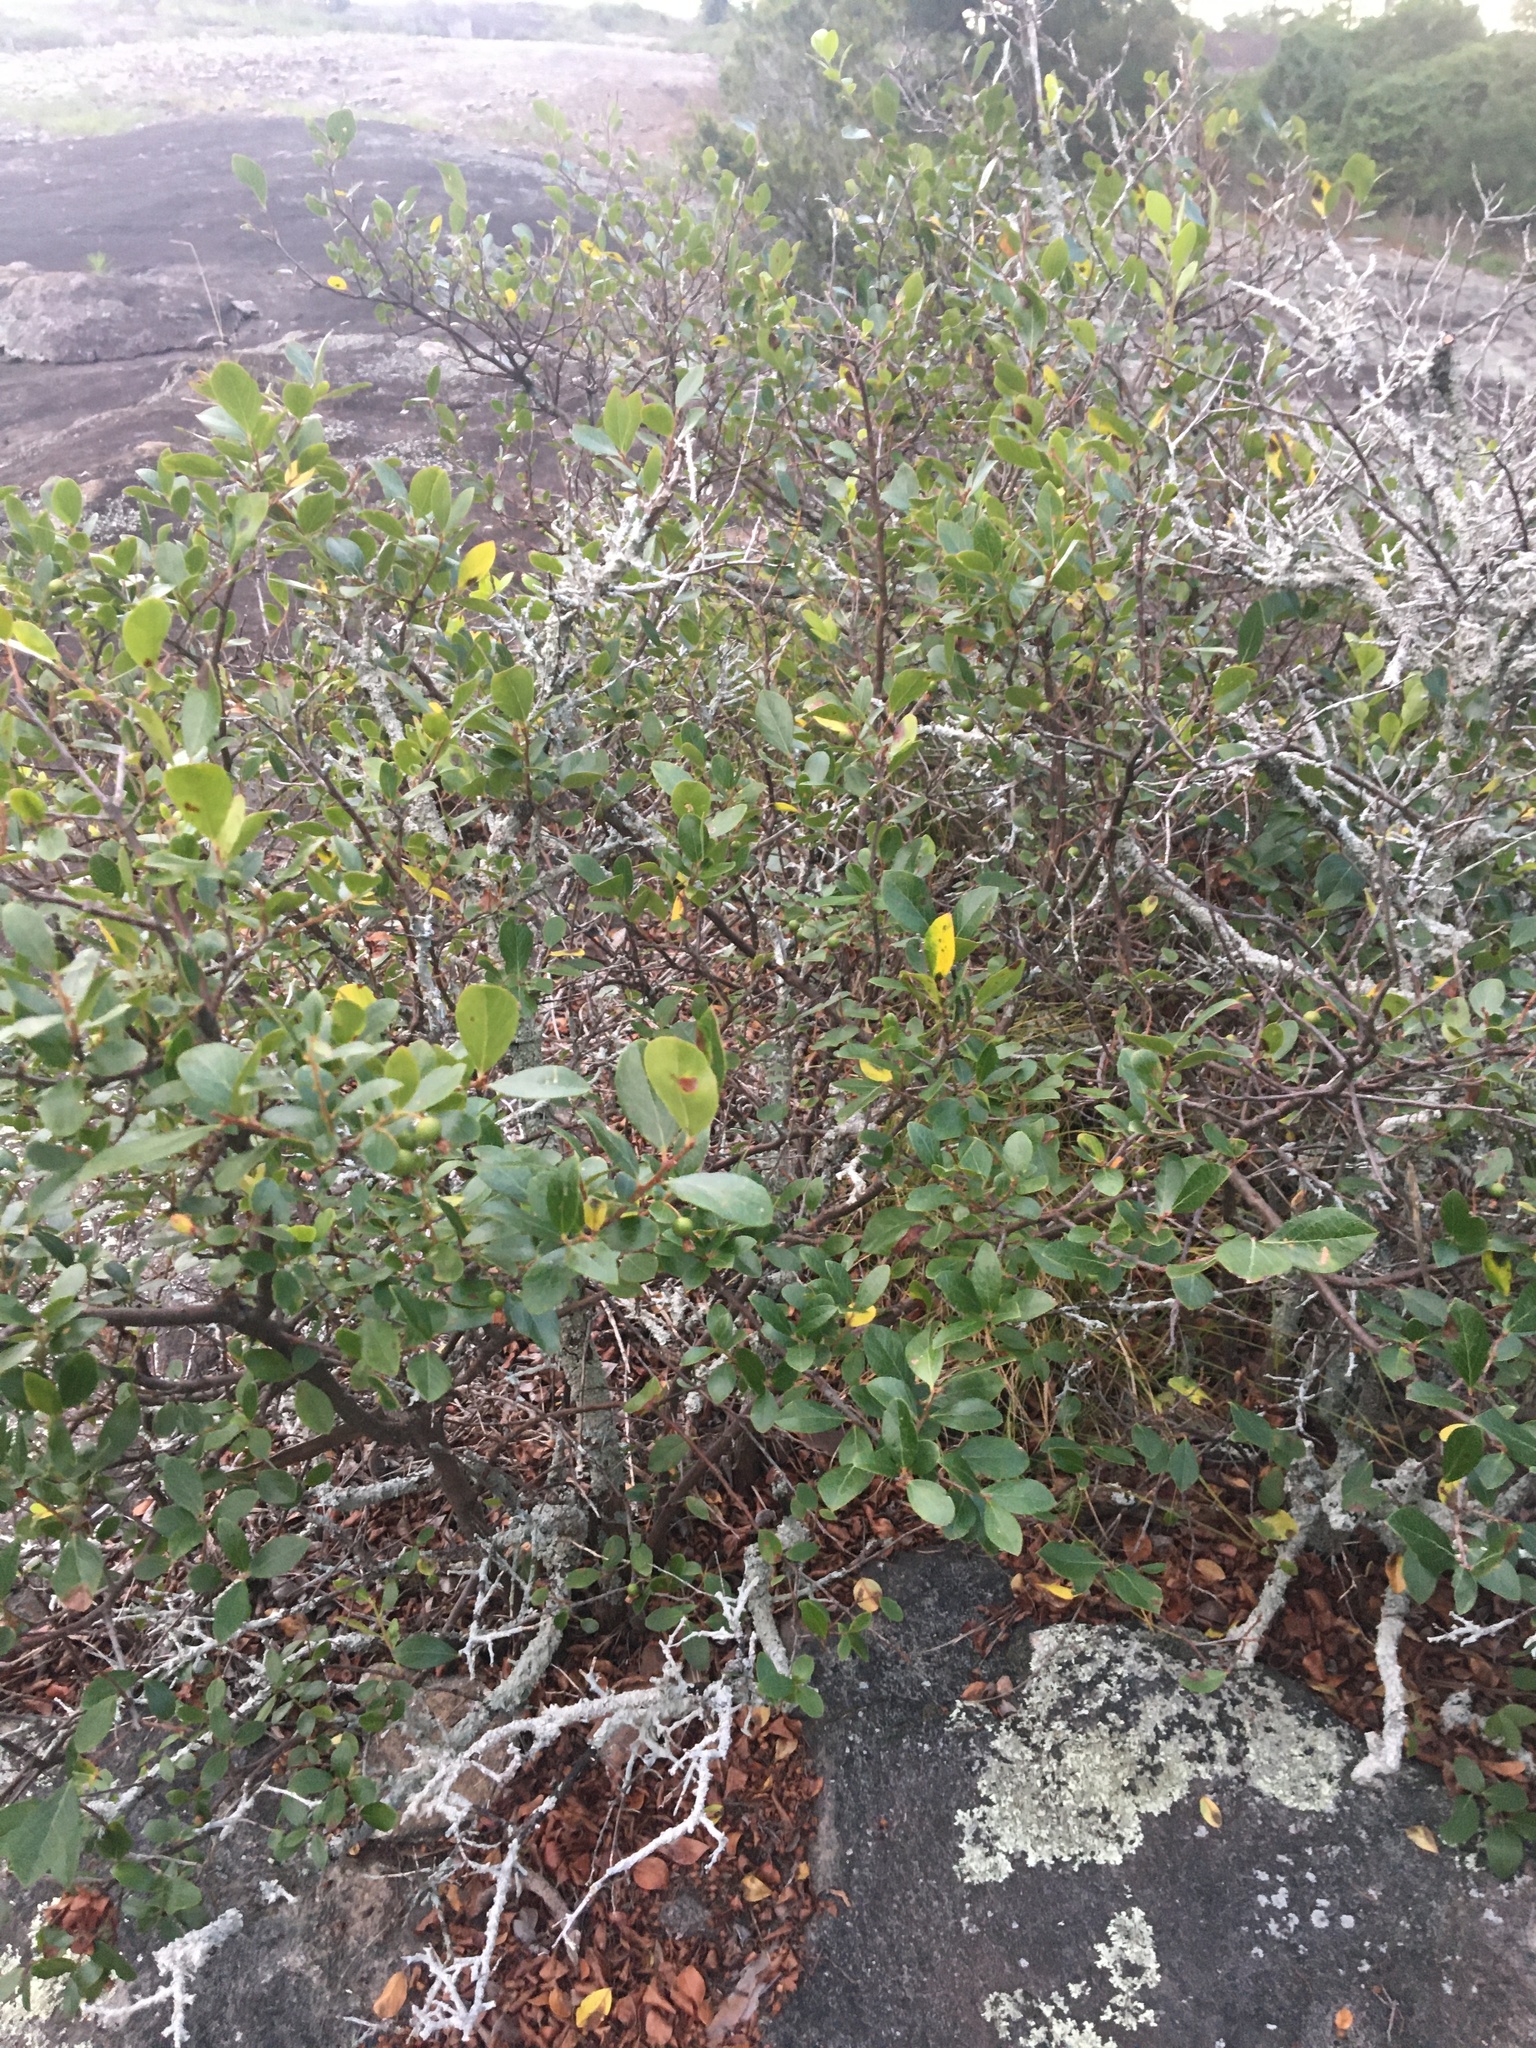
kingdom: Plantae
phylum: Tracheophyta
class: Magnoliopsida
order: Ericales
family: Ericaceae
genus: Vaccinium
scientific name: Vaccinium arboreum
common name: Farkleberry
